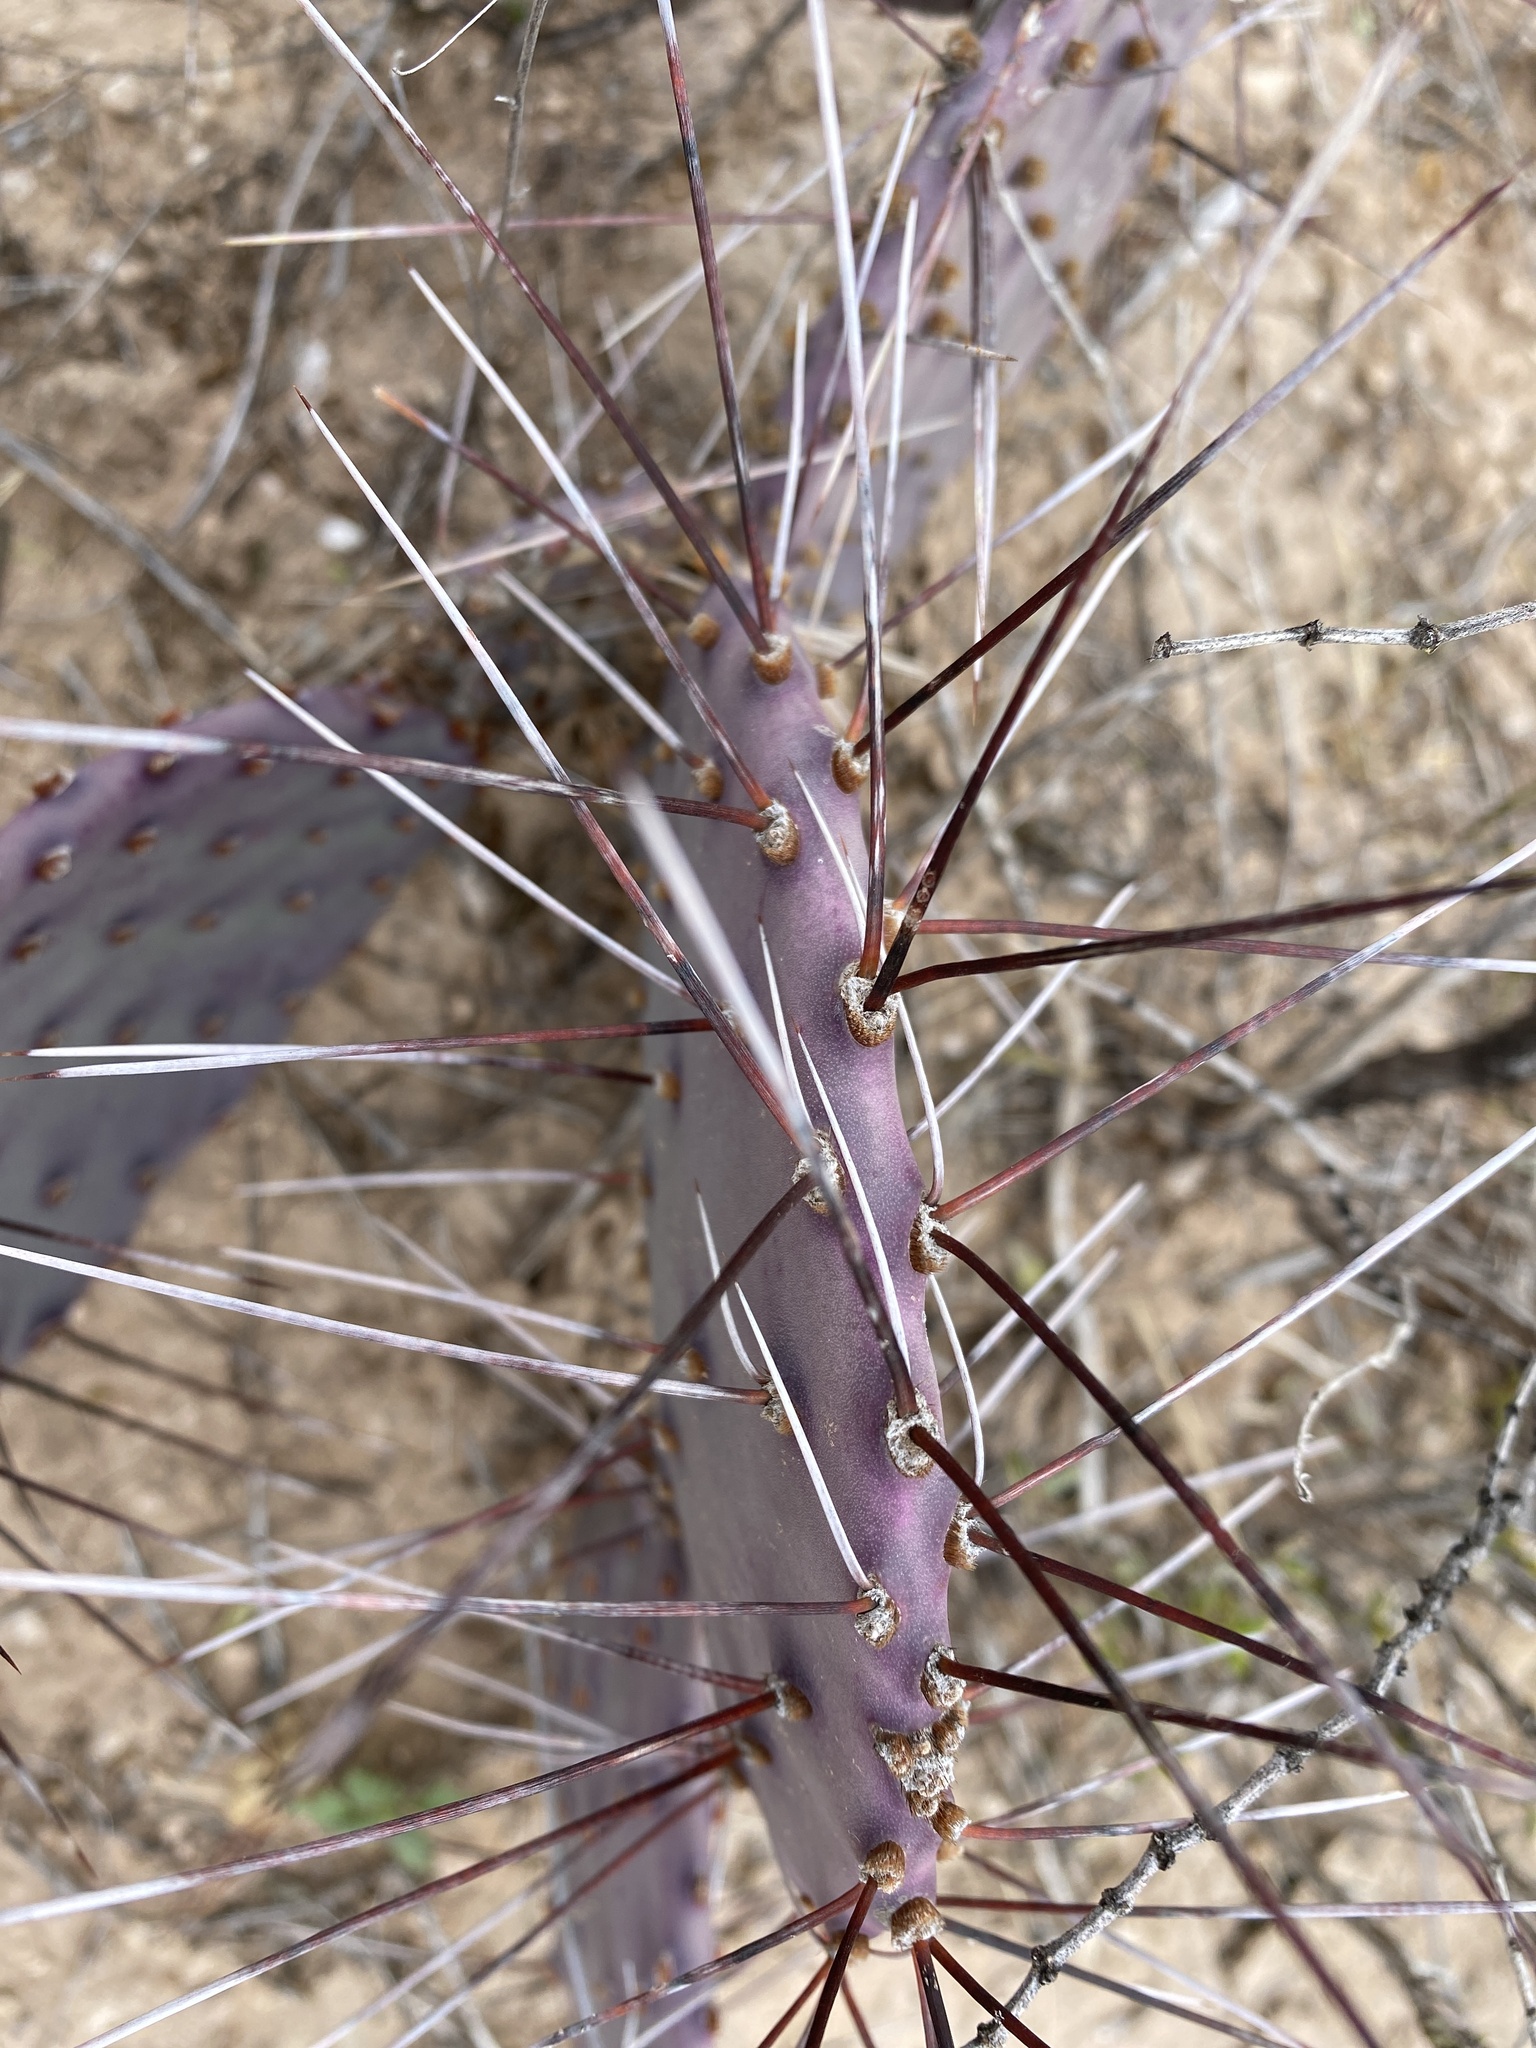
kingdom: Plantae
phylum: Tracheophyta
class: Magnoliopsida
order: Caryophyllales
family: Cactaceae
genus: Opuntia
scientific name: Opuntia macrocentra
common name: Purple prickly-pear
